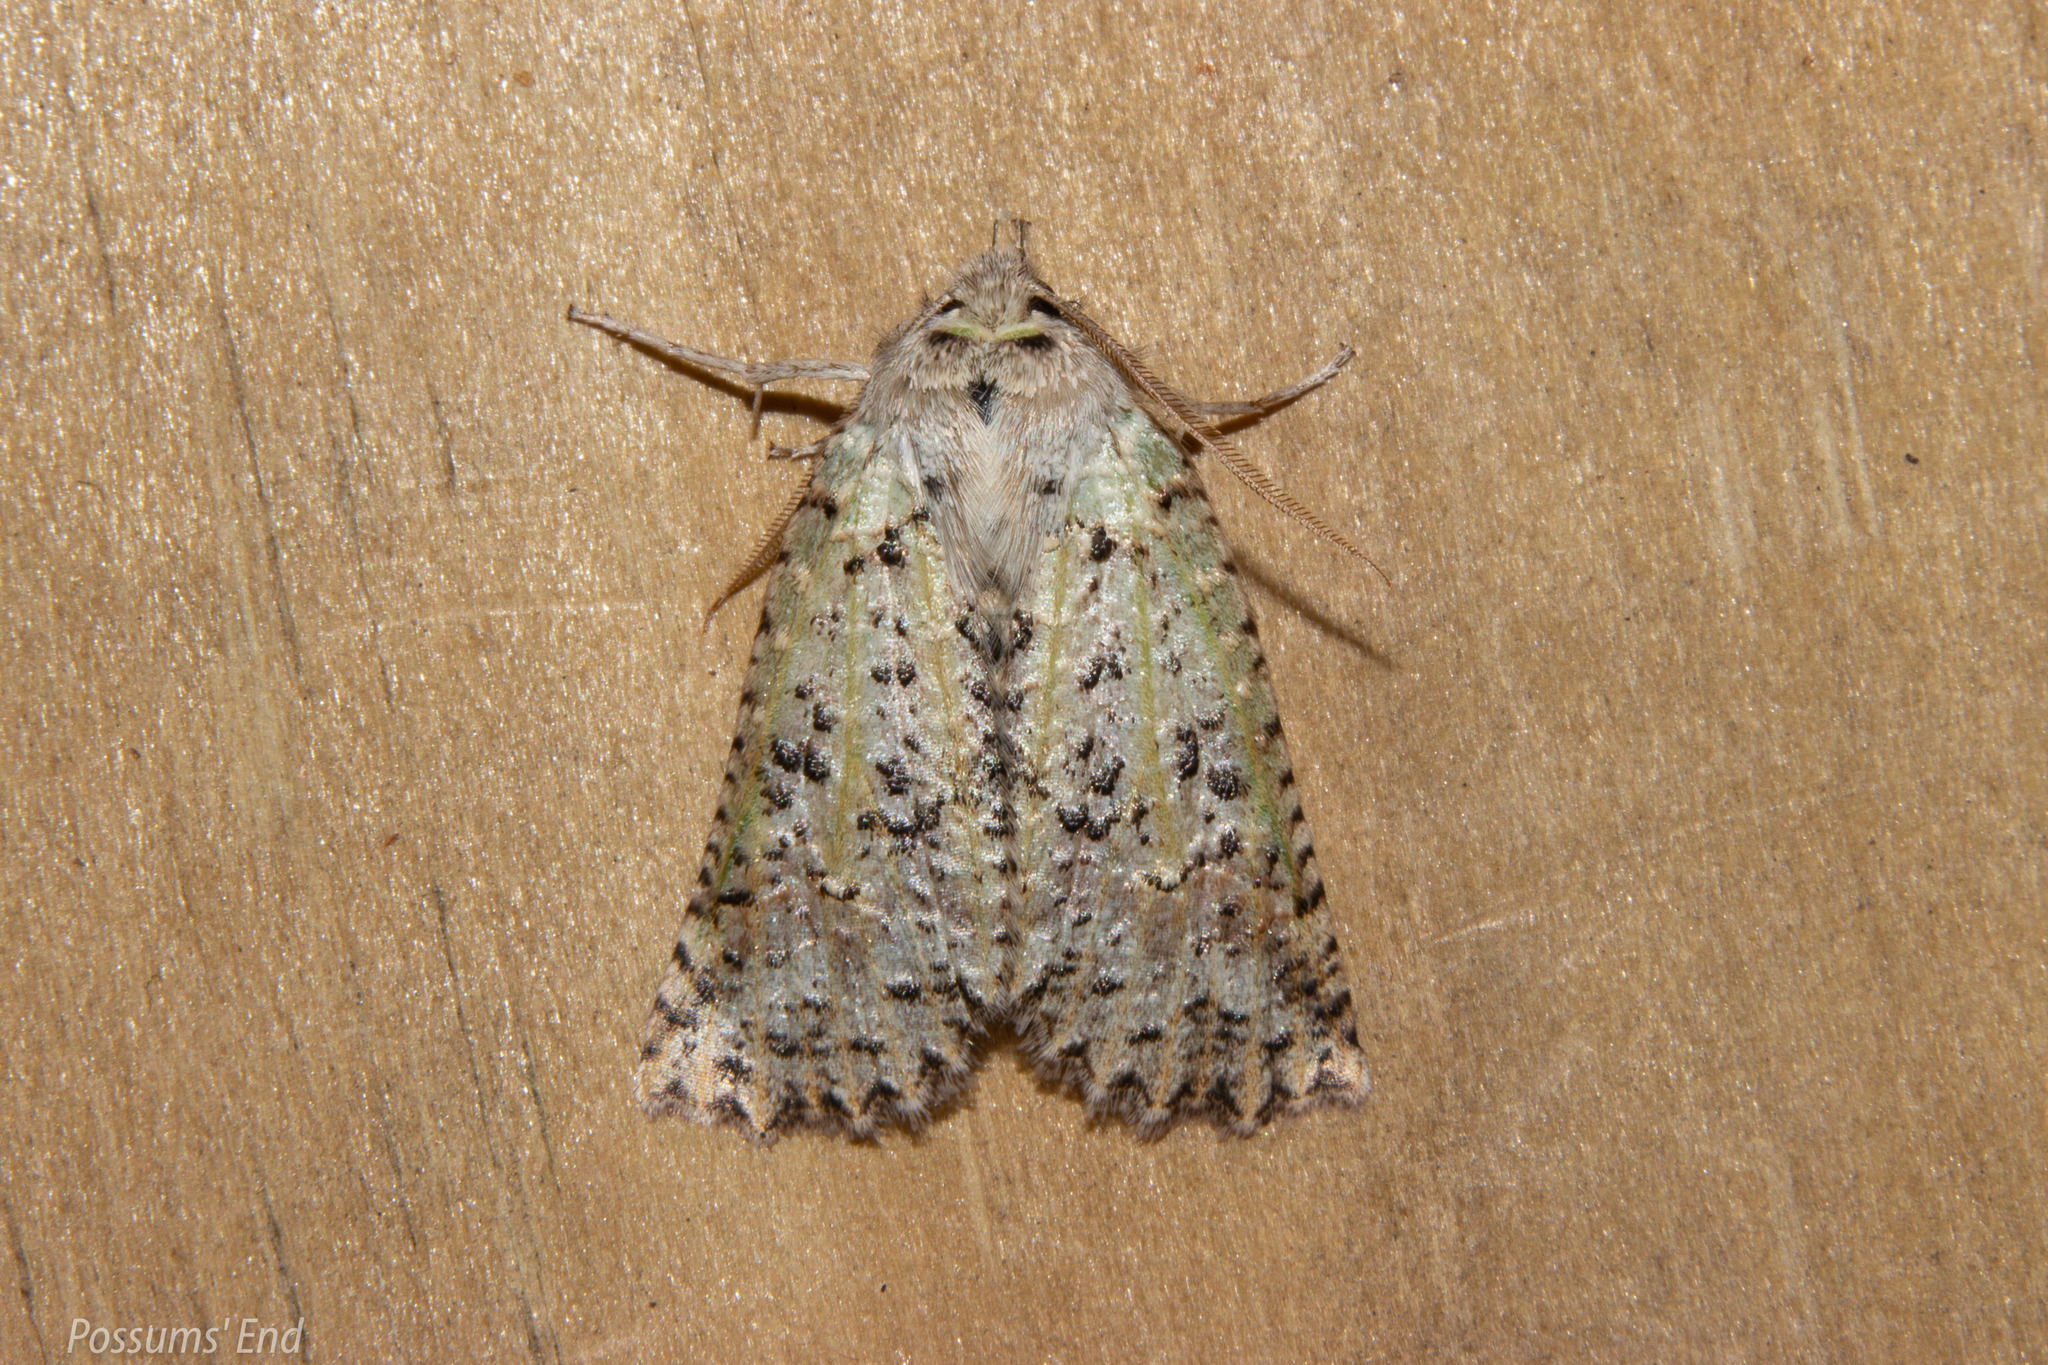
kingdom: Animalia
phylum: Arthropoda
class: Insecta
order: Lepidoptera
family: Geometridae
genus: Declana
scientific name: Declana floccosa
